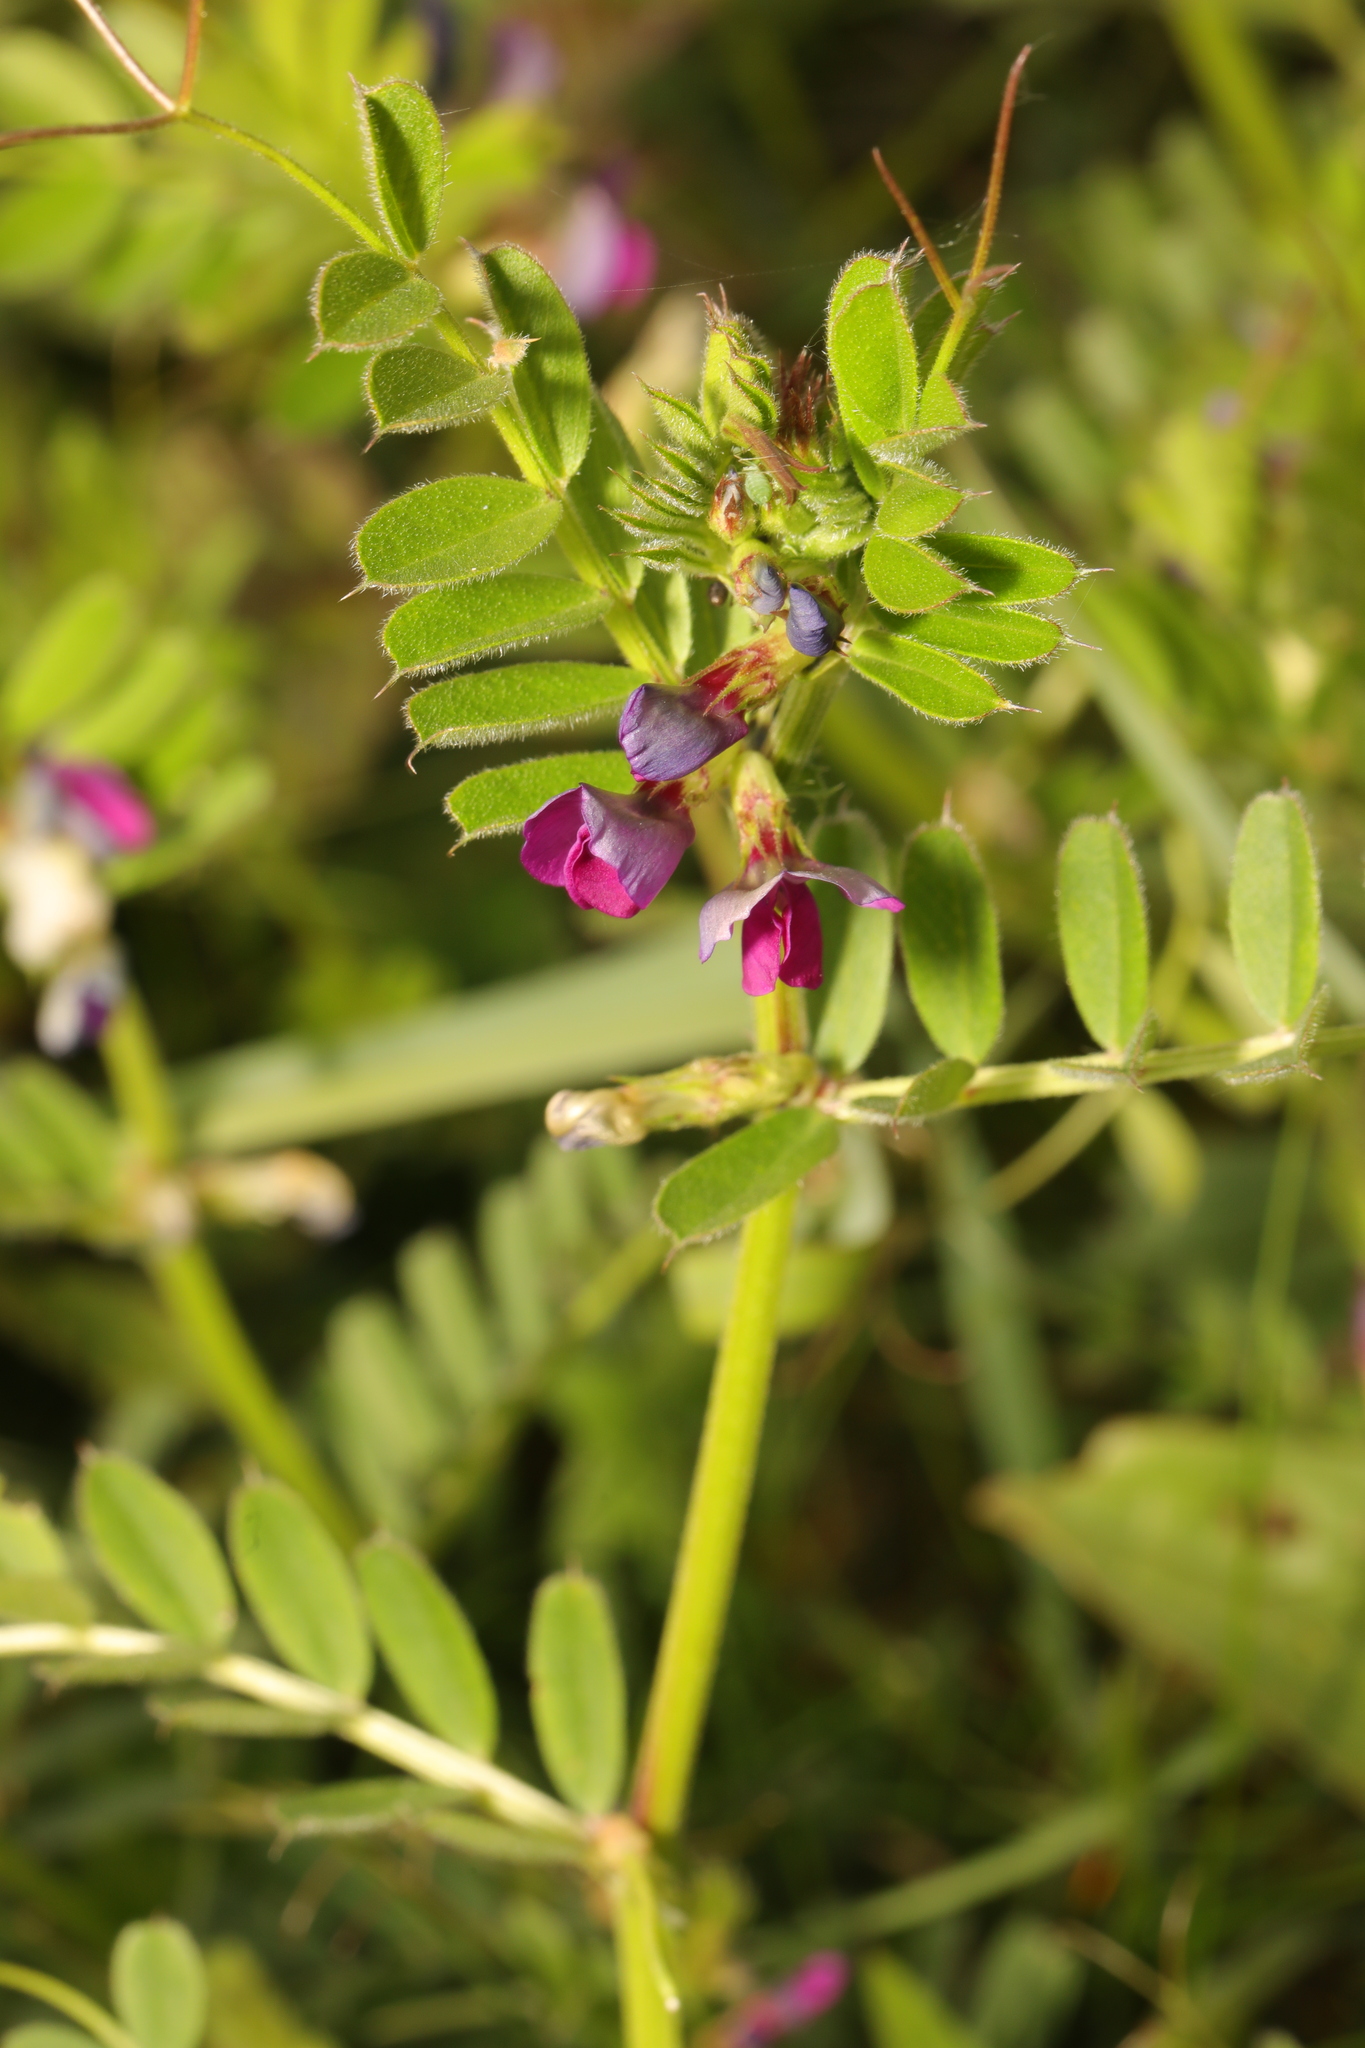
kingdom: Plantae
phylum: Tracheophyta
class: Magnoliopsida
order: Fabales
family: Fabaceae
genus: Vicia
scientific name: Vicia sativa
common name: Garden vetch
